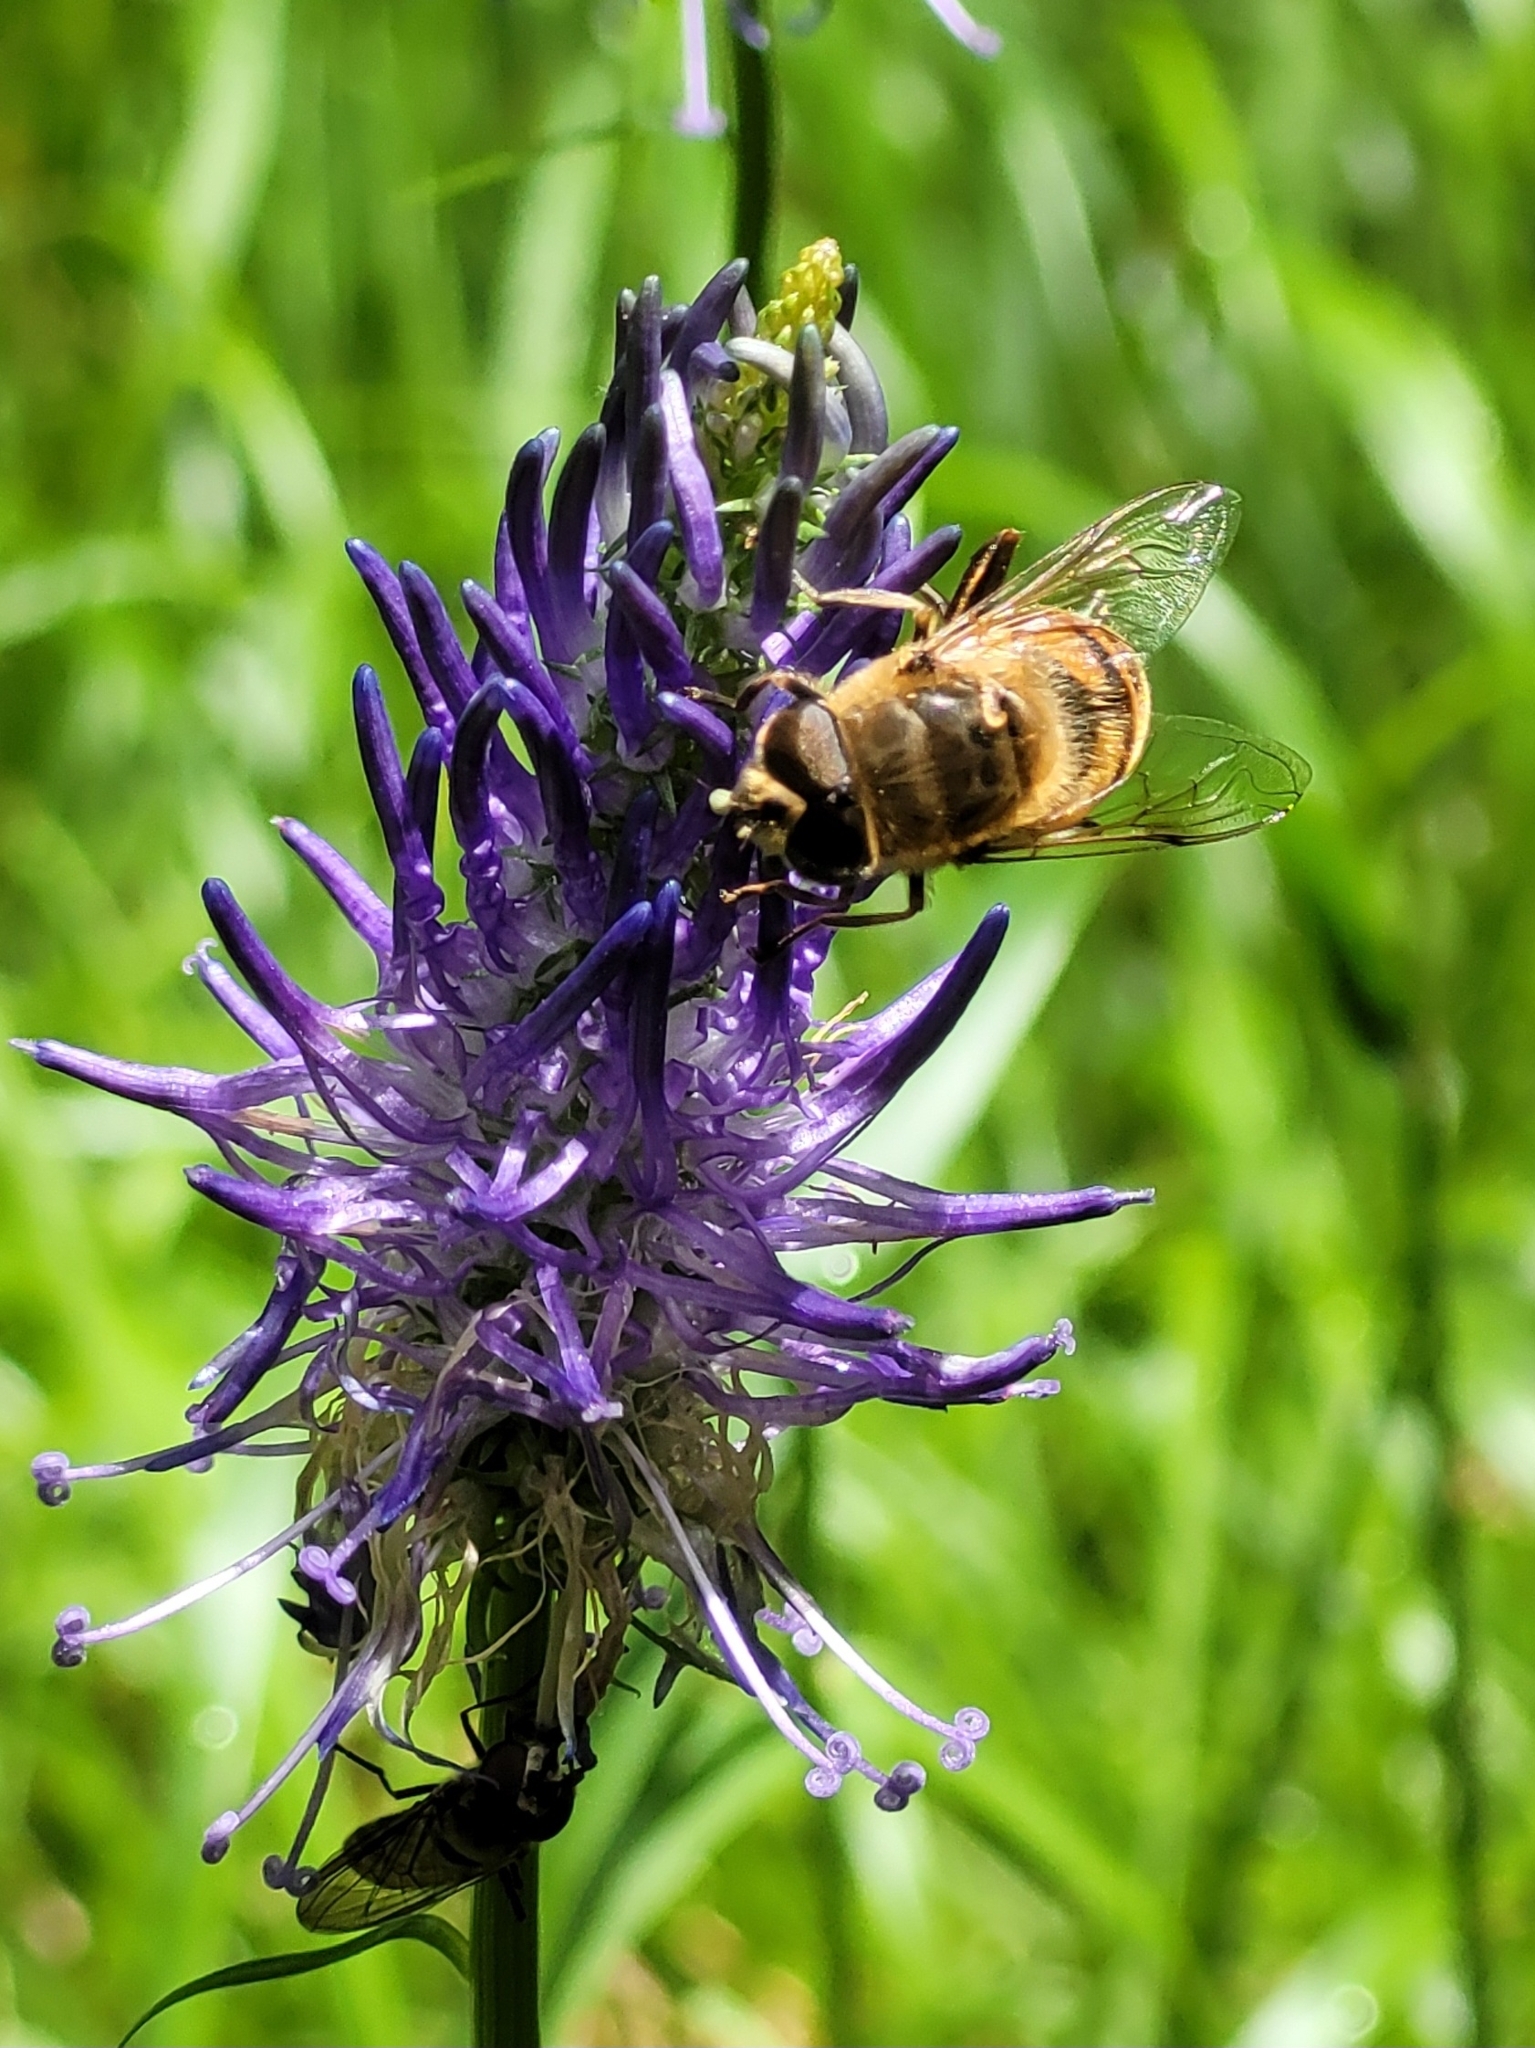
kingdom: Animalia
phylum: Arthropoda
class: Insecta
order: Diptera
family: Syrphidae
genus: Eristalis
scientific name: Eristalis tenax
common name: Drone fly
